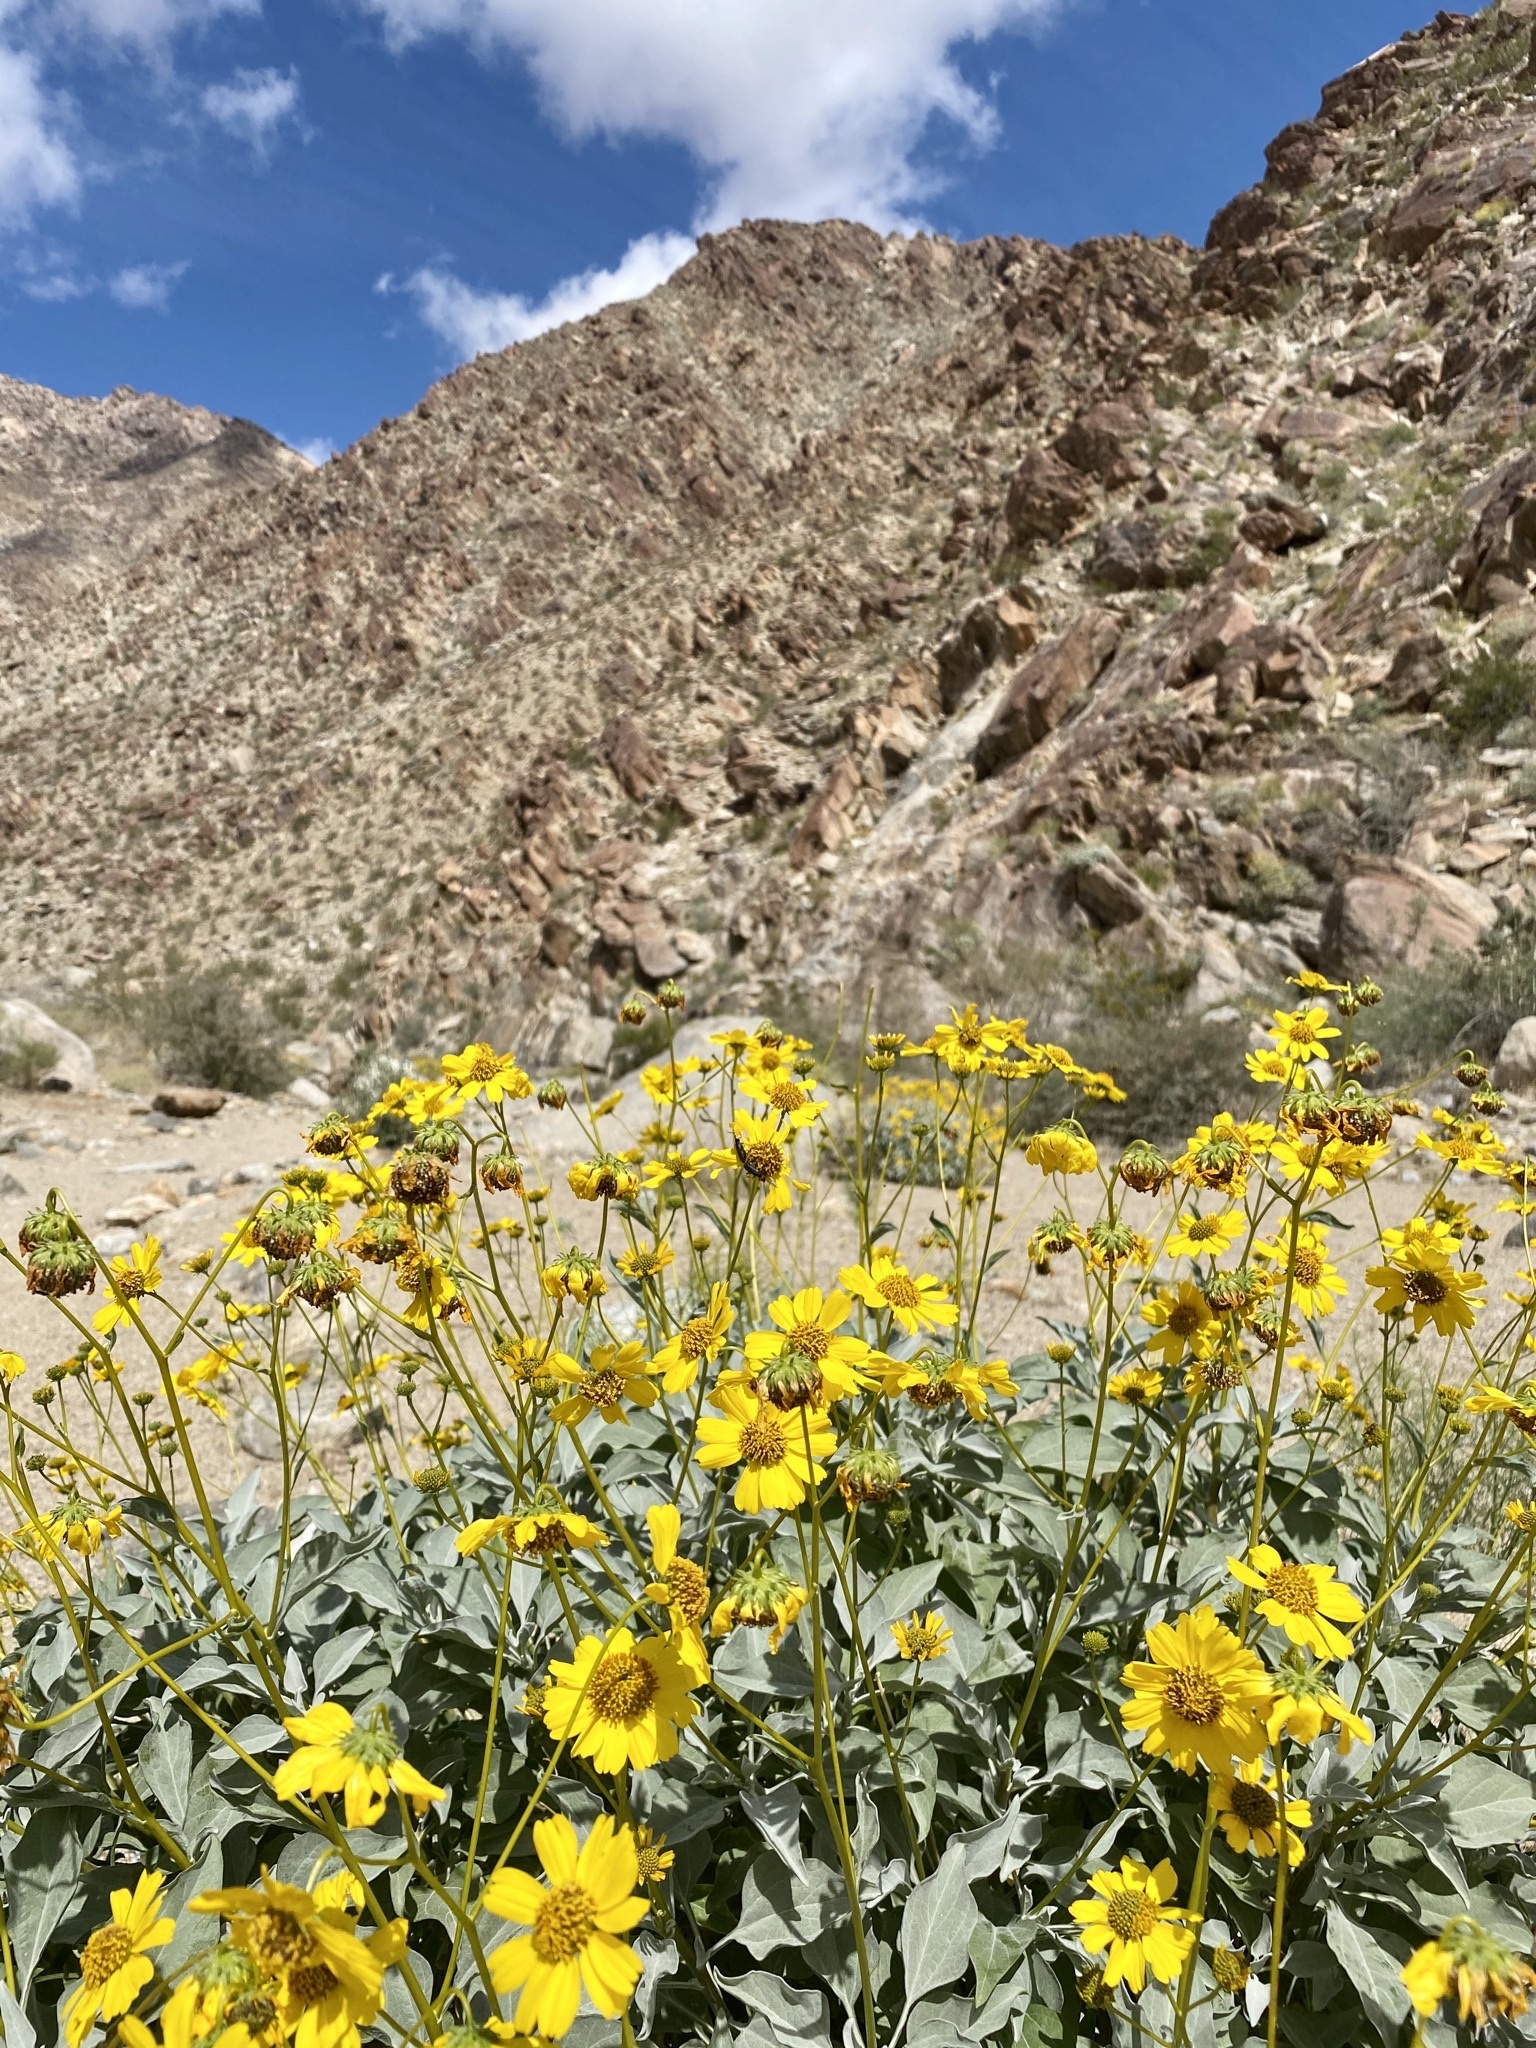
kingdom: Plantae
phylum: Tracheophyta
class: Magnoliopsida
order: Asterales
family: Asteraceae
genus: Encelia
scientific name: Encelia farinosa
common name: Brittlebush
